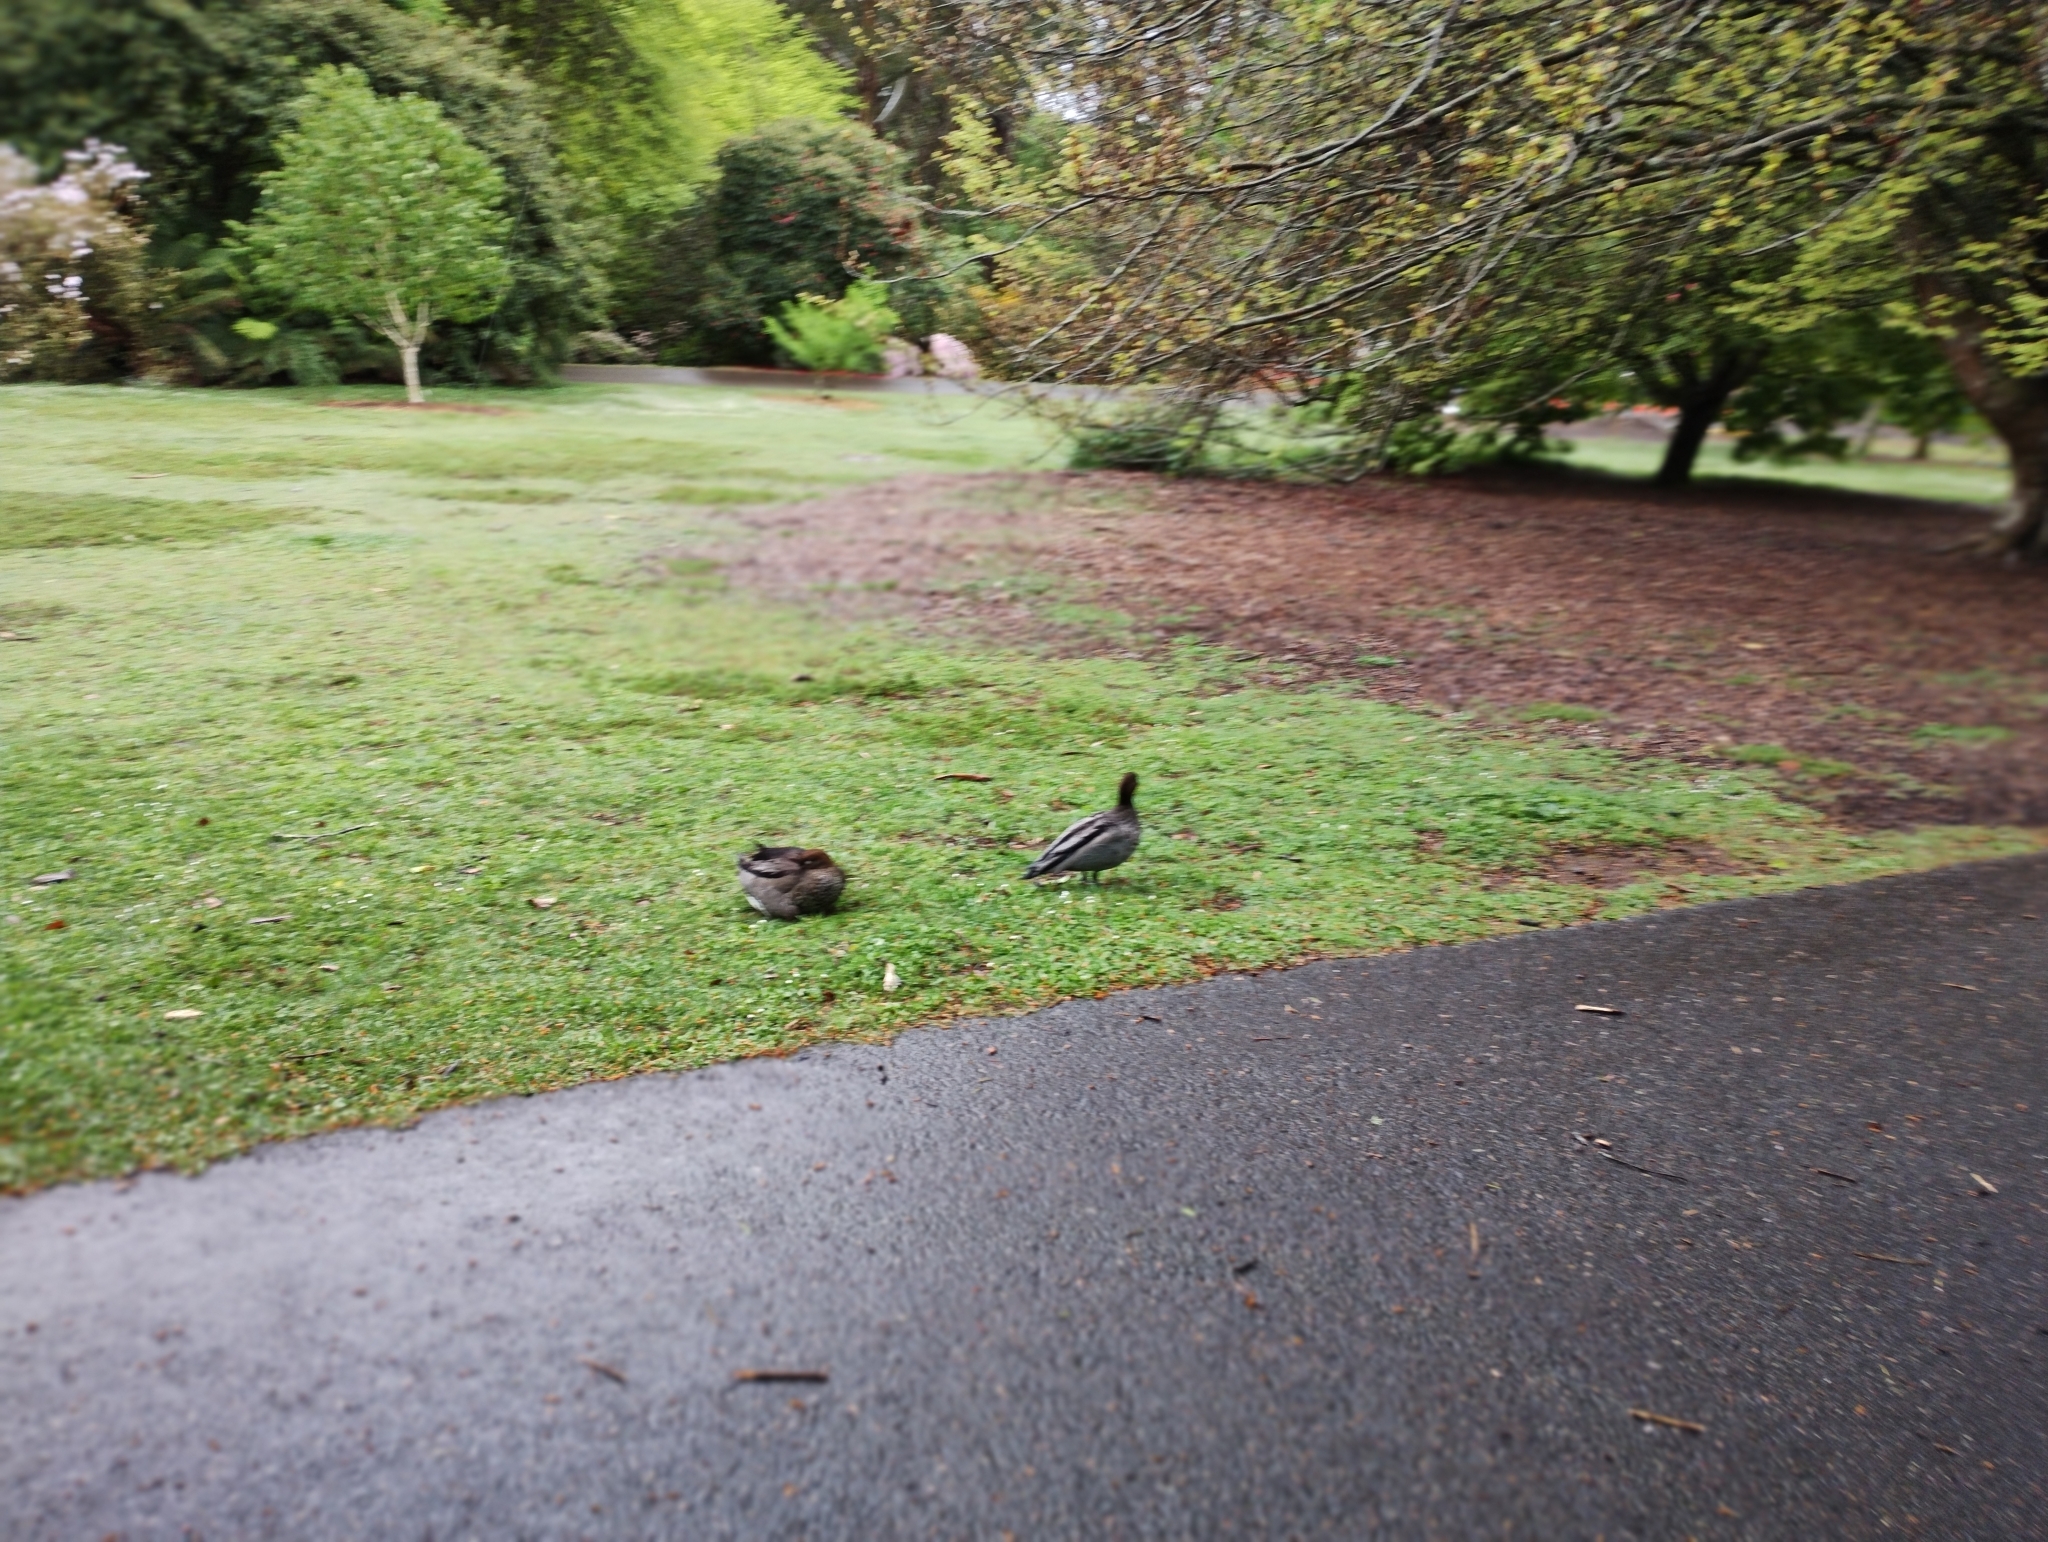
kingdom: Animalia
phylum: Chordata
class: Aves
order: Anseriformes
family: Anatidae
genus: Chenonetta
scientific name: Chenonetta jubata
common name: Maned duck
